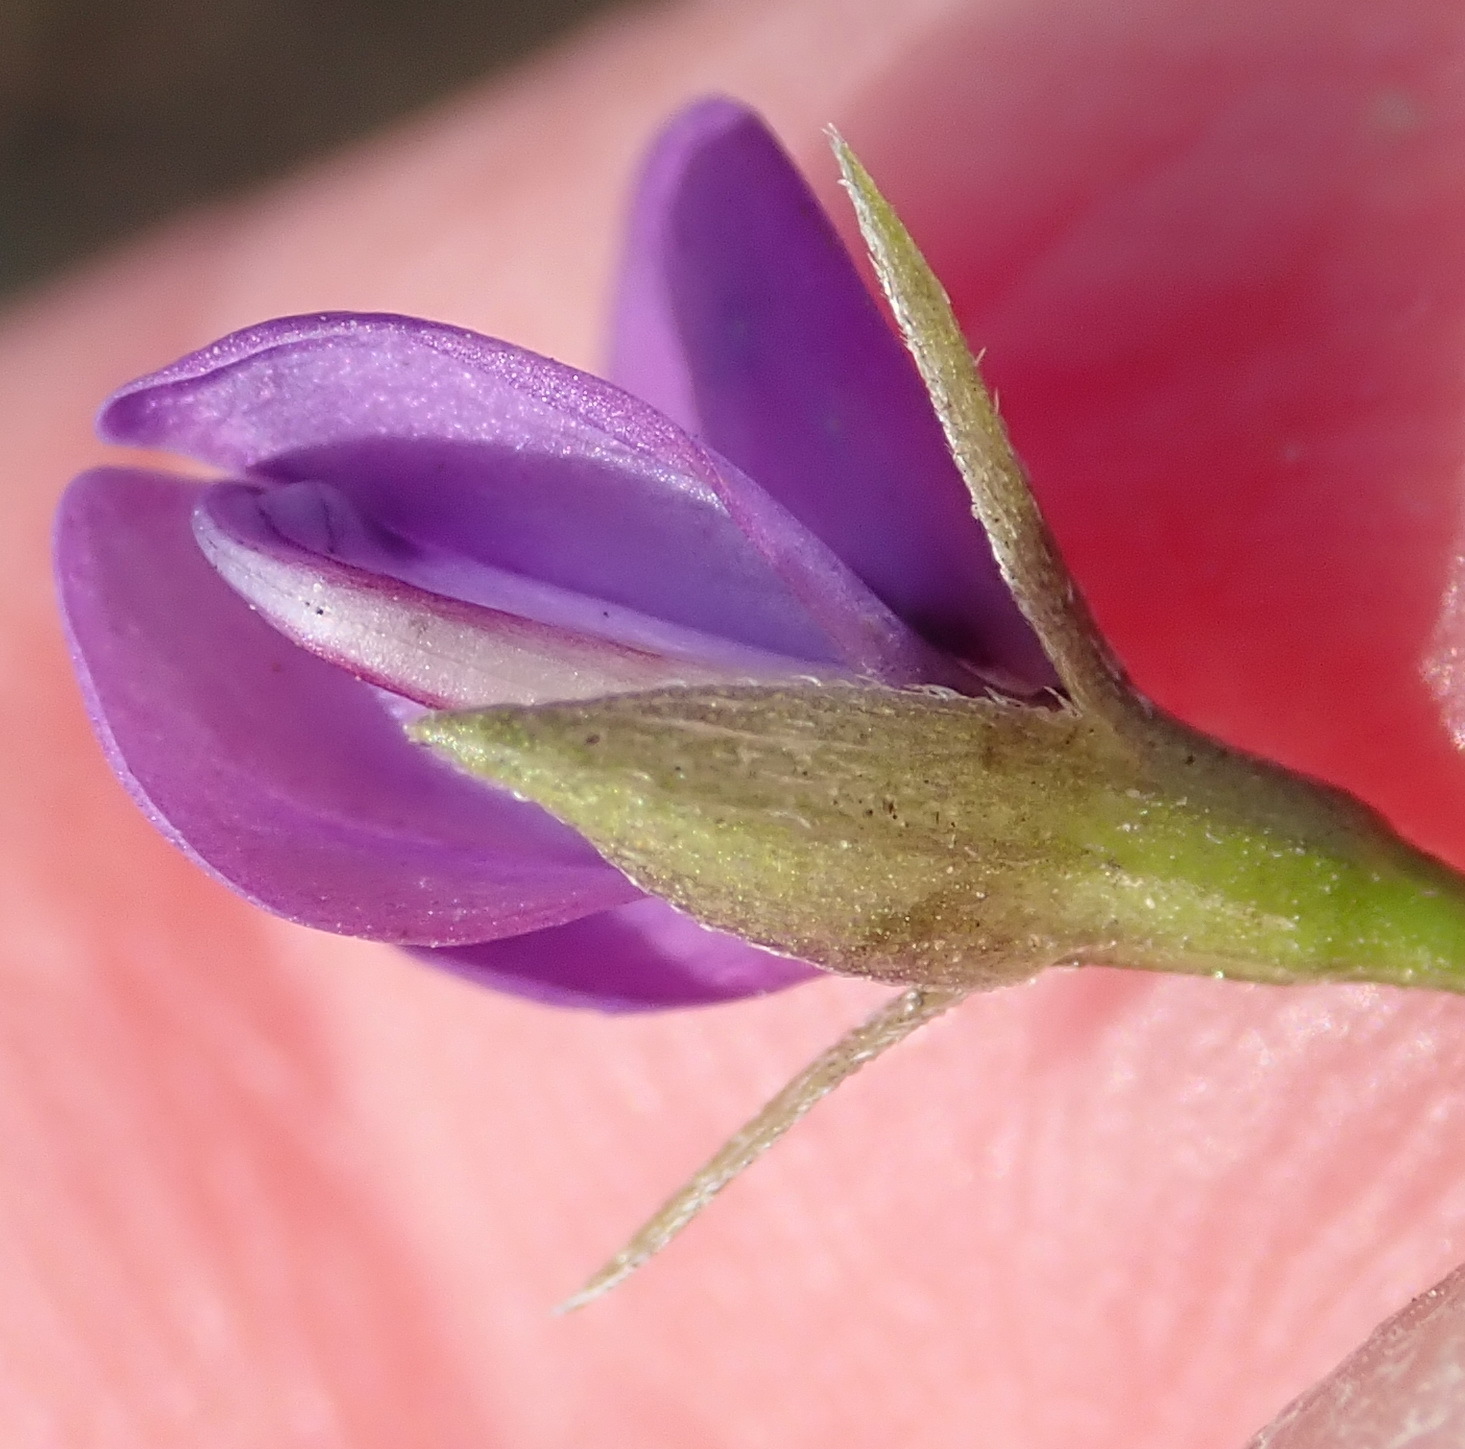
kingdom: Plantae
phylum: Tracheophyta
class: Magnoliopsida
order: Fabales
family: Fabaceae
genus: Psoralea
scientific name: Psoralea plauta
